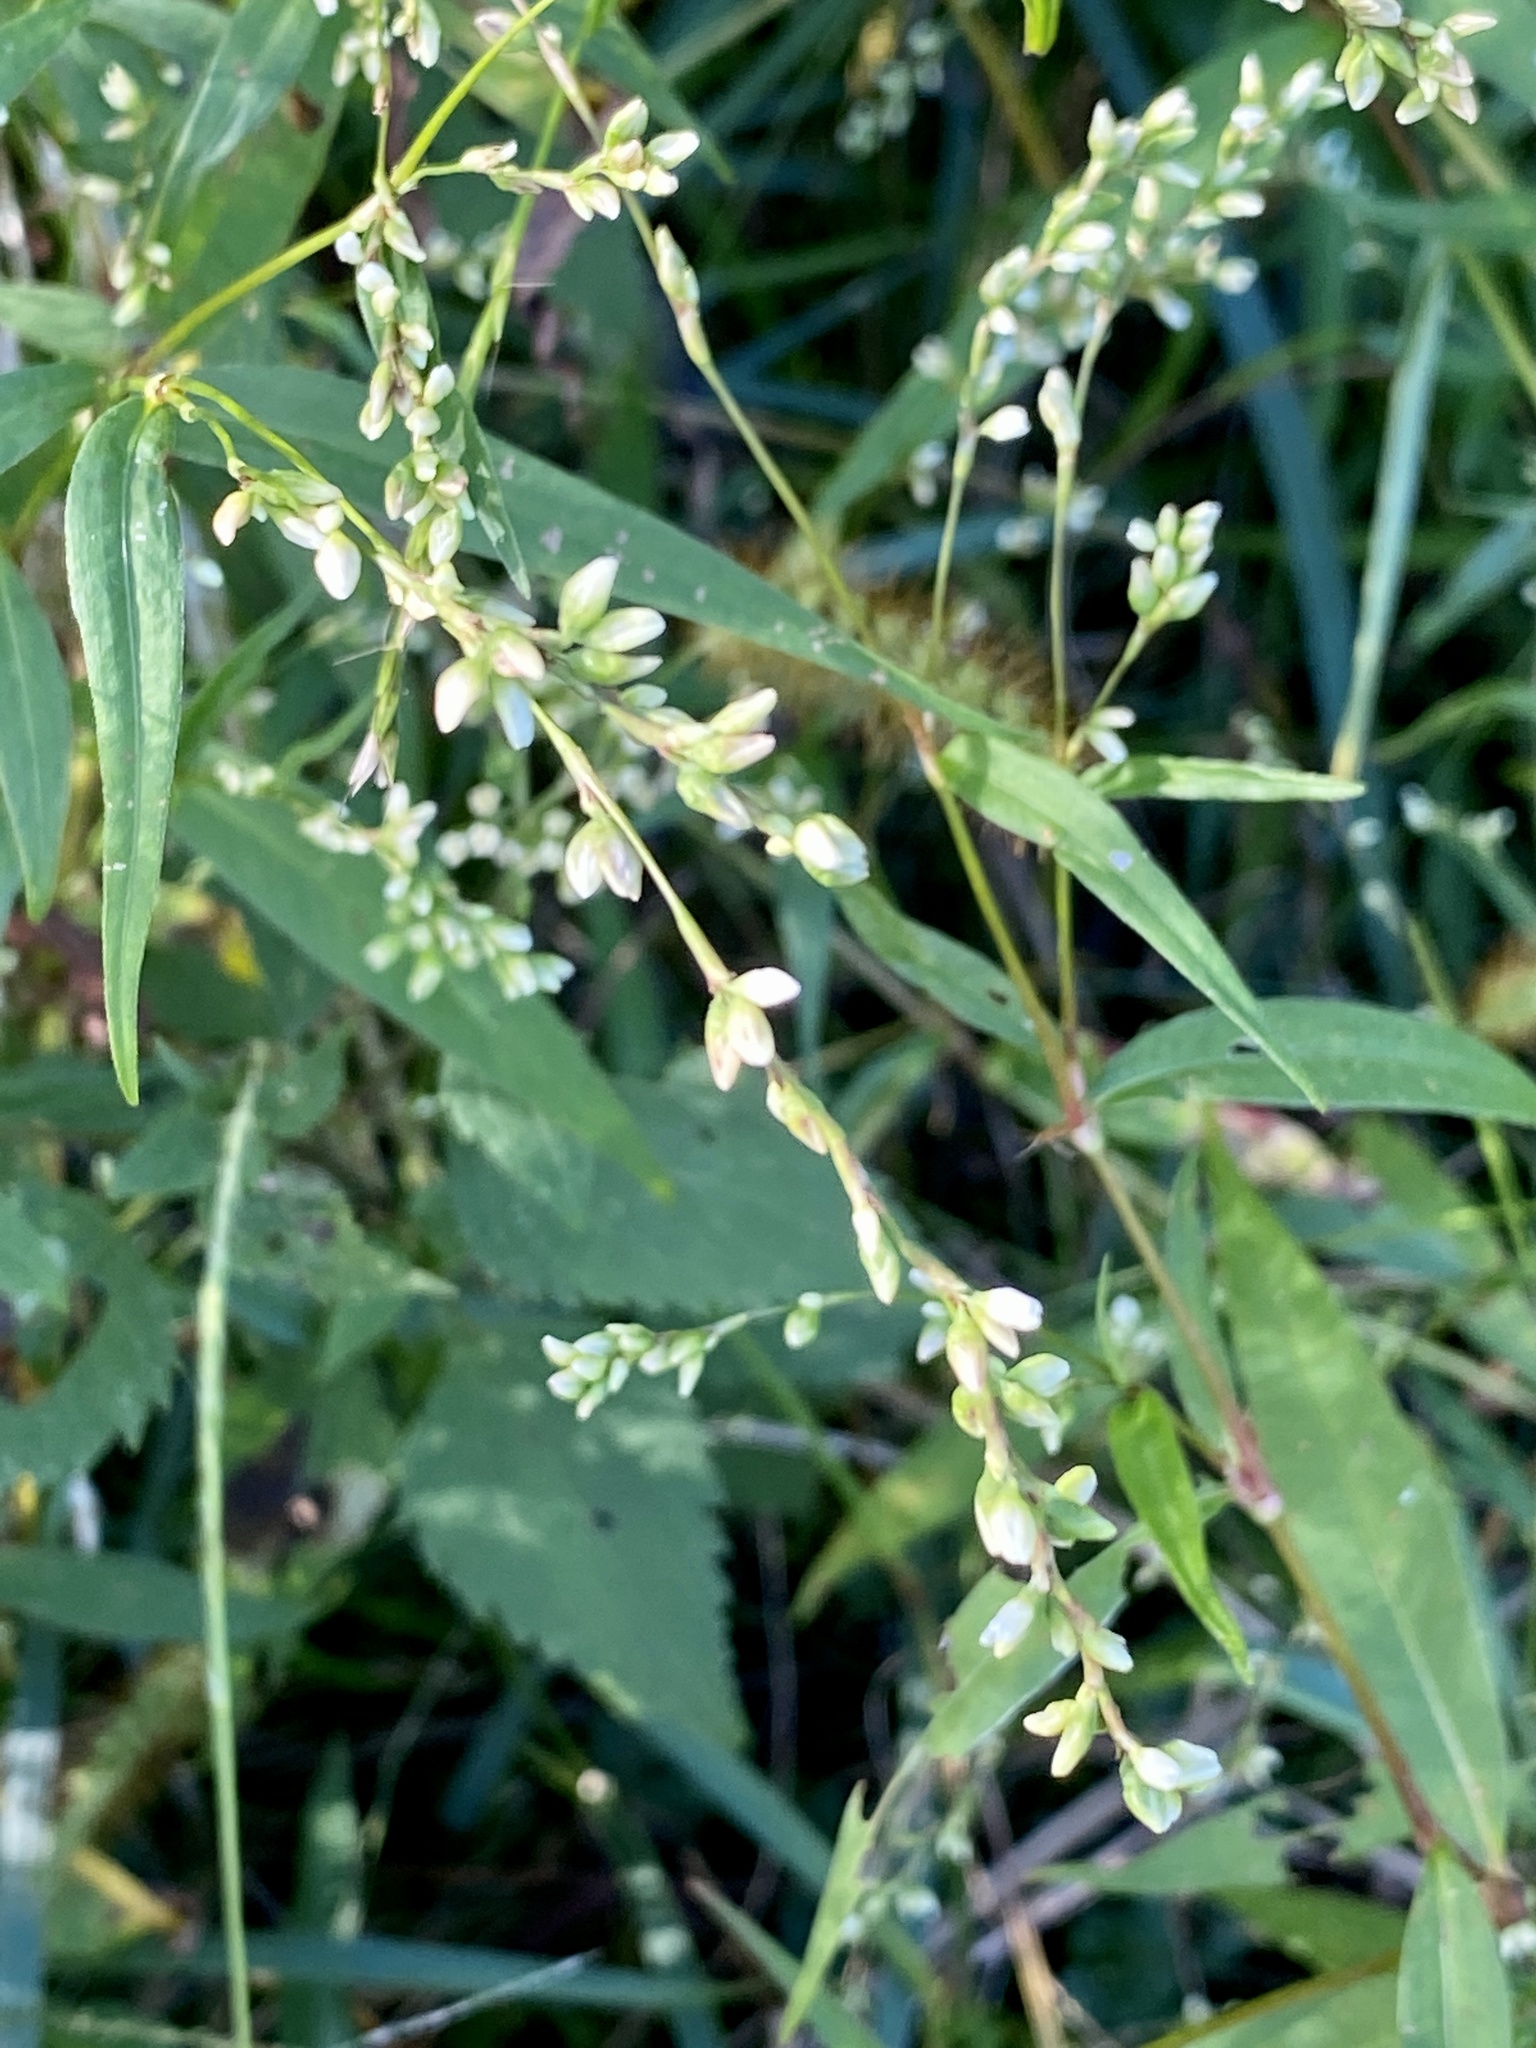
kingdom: Plantae
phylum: Tracheophyta
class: Magnoliopsida
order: Caryophyllales
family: Polygonaceae
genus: Persicaria
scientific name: Persicaria punctata
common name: Dotted smartweed
